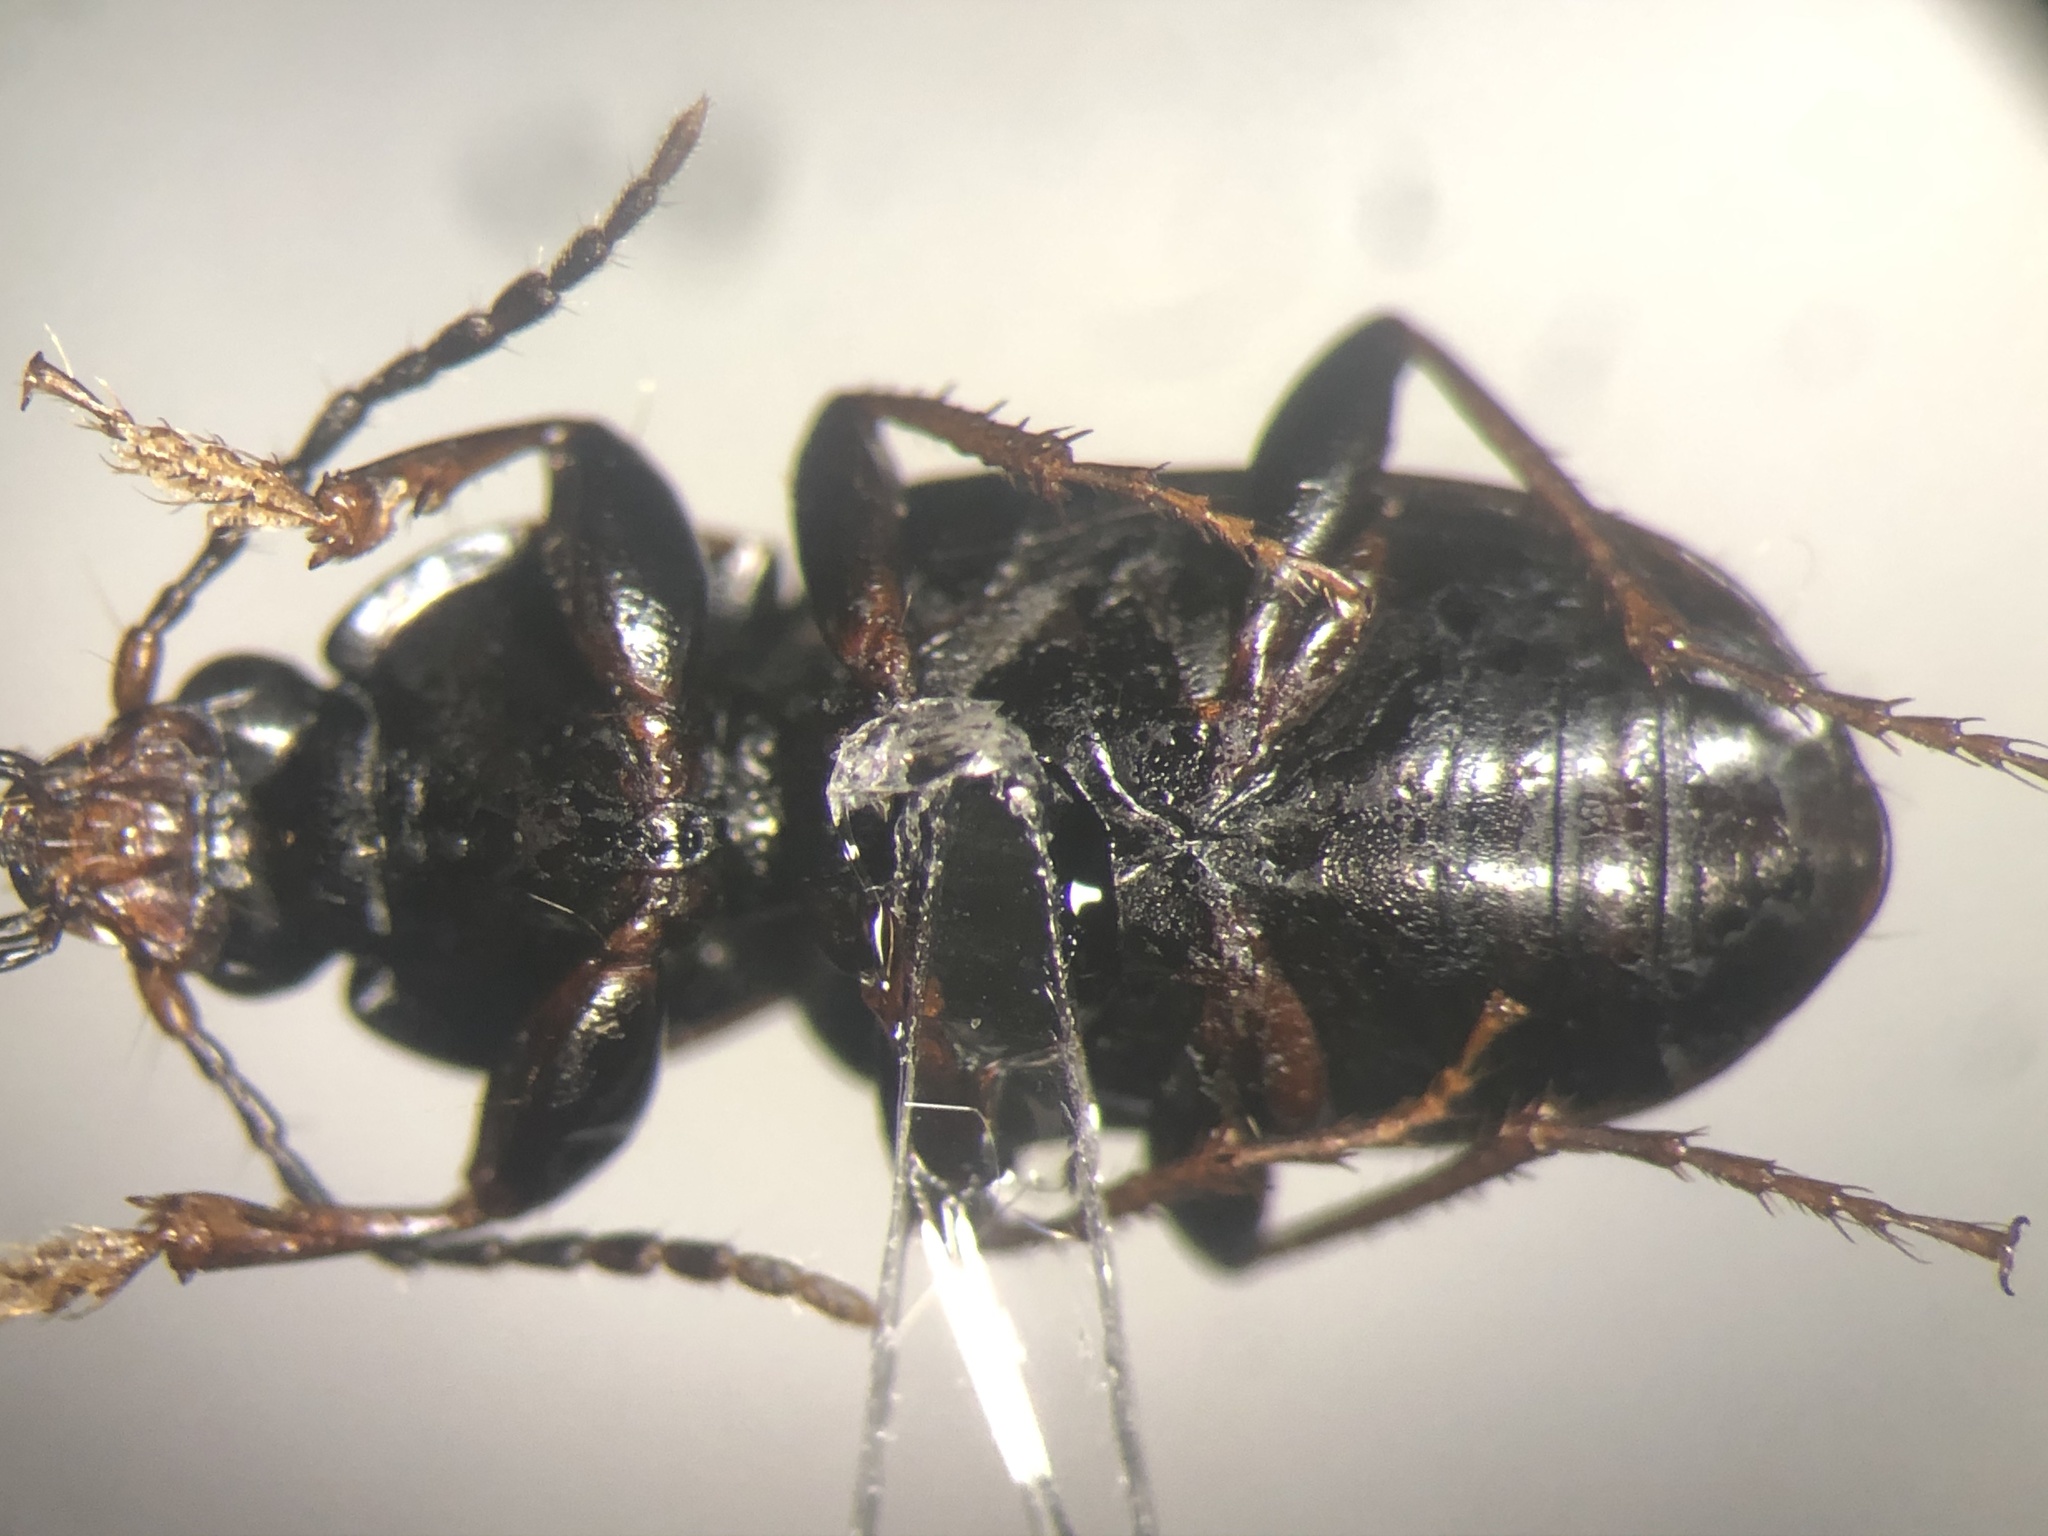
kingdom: Animalia
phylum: Arthropoda
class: Insecta
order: Coleoptera
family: Carabidae
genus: Pterostichus
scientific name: Pterostichus vernalis
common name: Spring harp ground beetle
